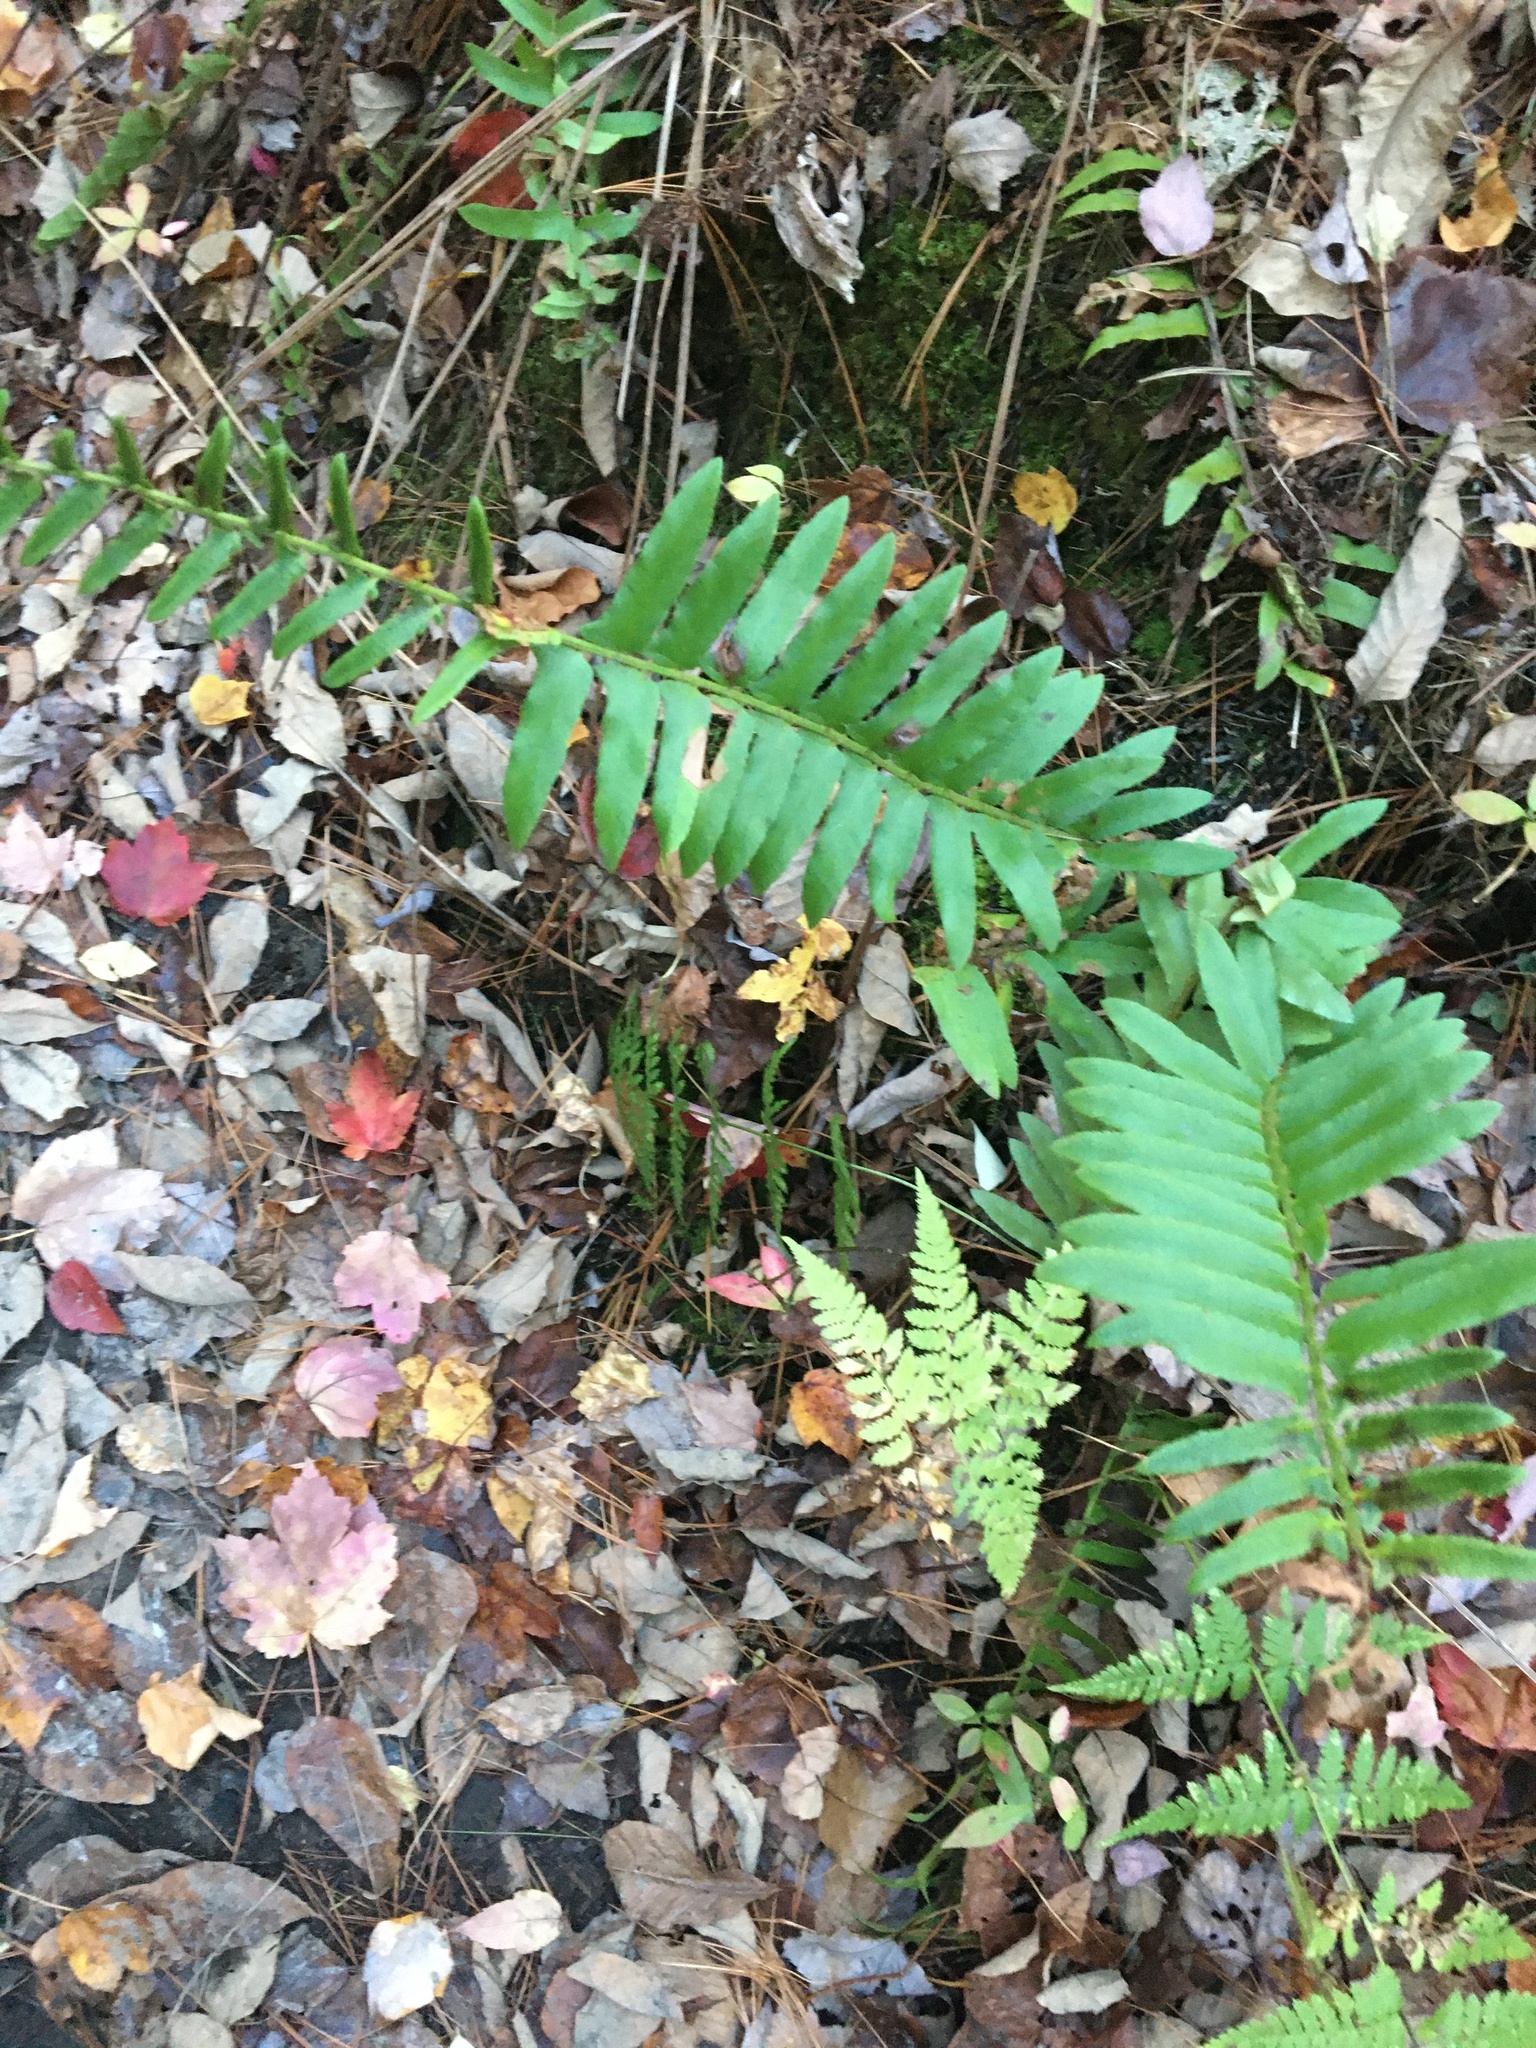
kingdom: Plantae
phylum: Tracheophyta
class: Polypodiopsida
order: Polypodiales
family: Dryopteridaceae
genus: Polystichum
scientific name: Polystichum acrostichoides
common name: Christmas fern
